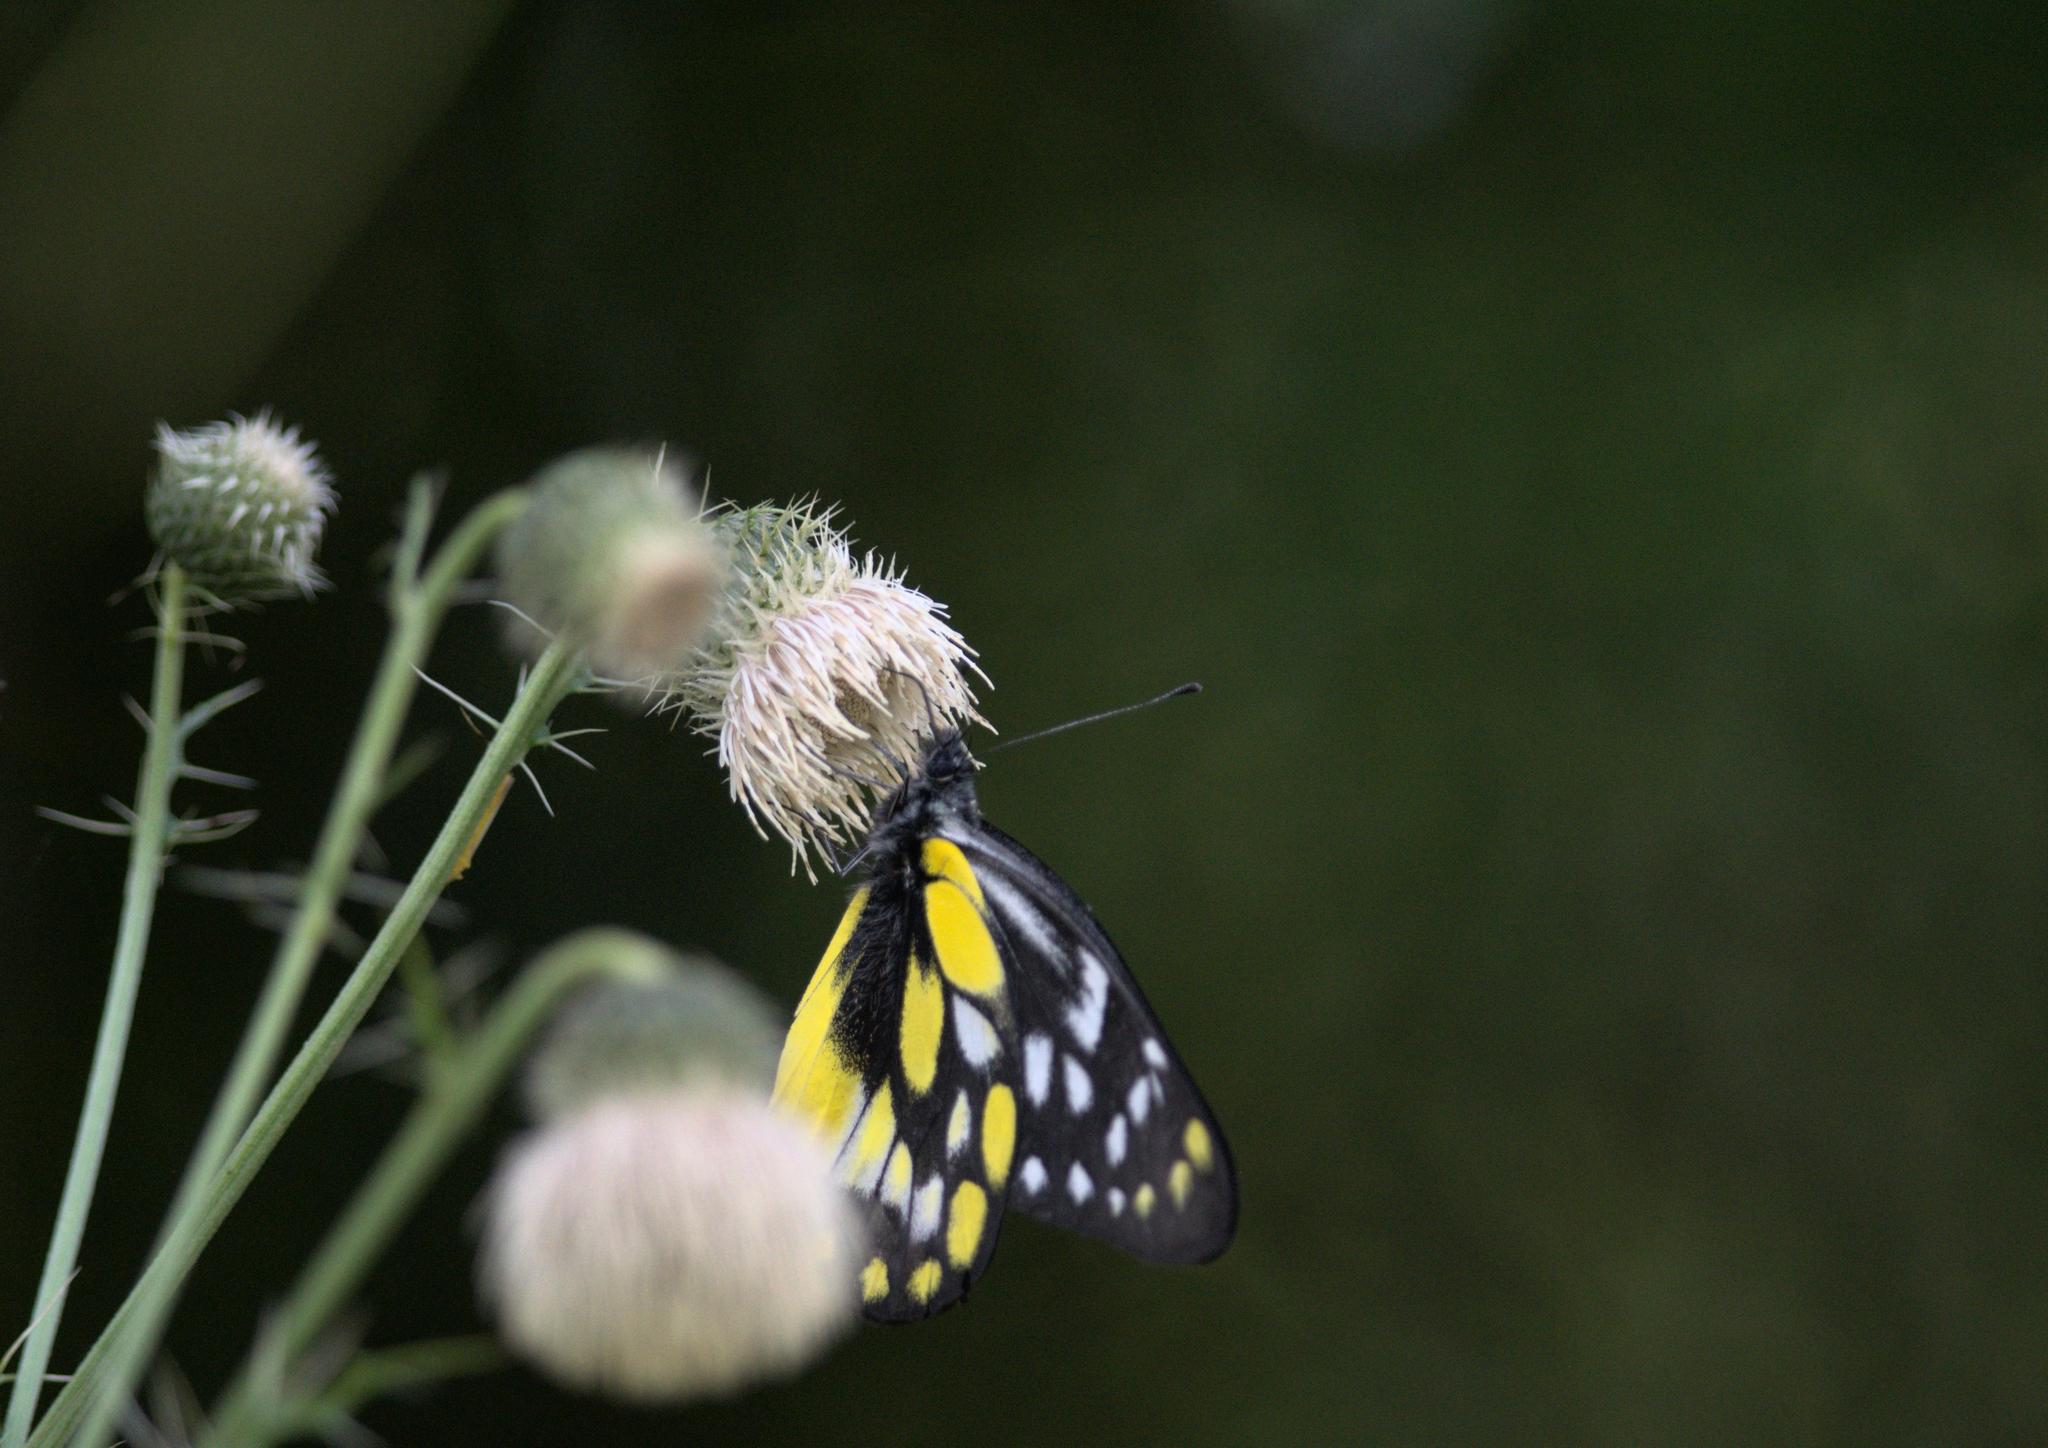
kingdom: Animalia
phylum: Arthropoda
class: Insecta
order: Lepidoptera
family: Pieridae
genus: Delias
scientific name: Delias belladonna
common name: Hill jezebel
